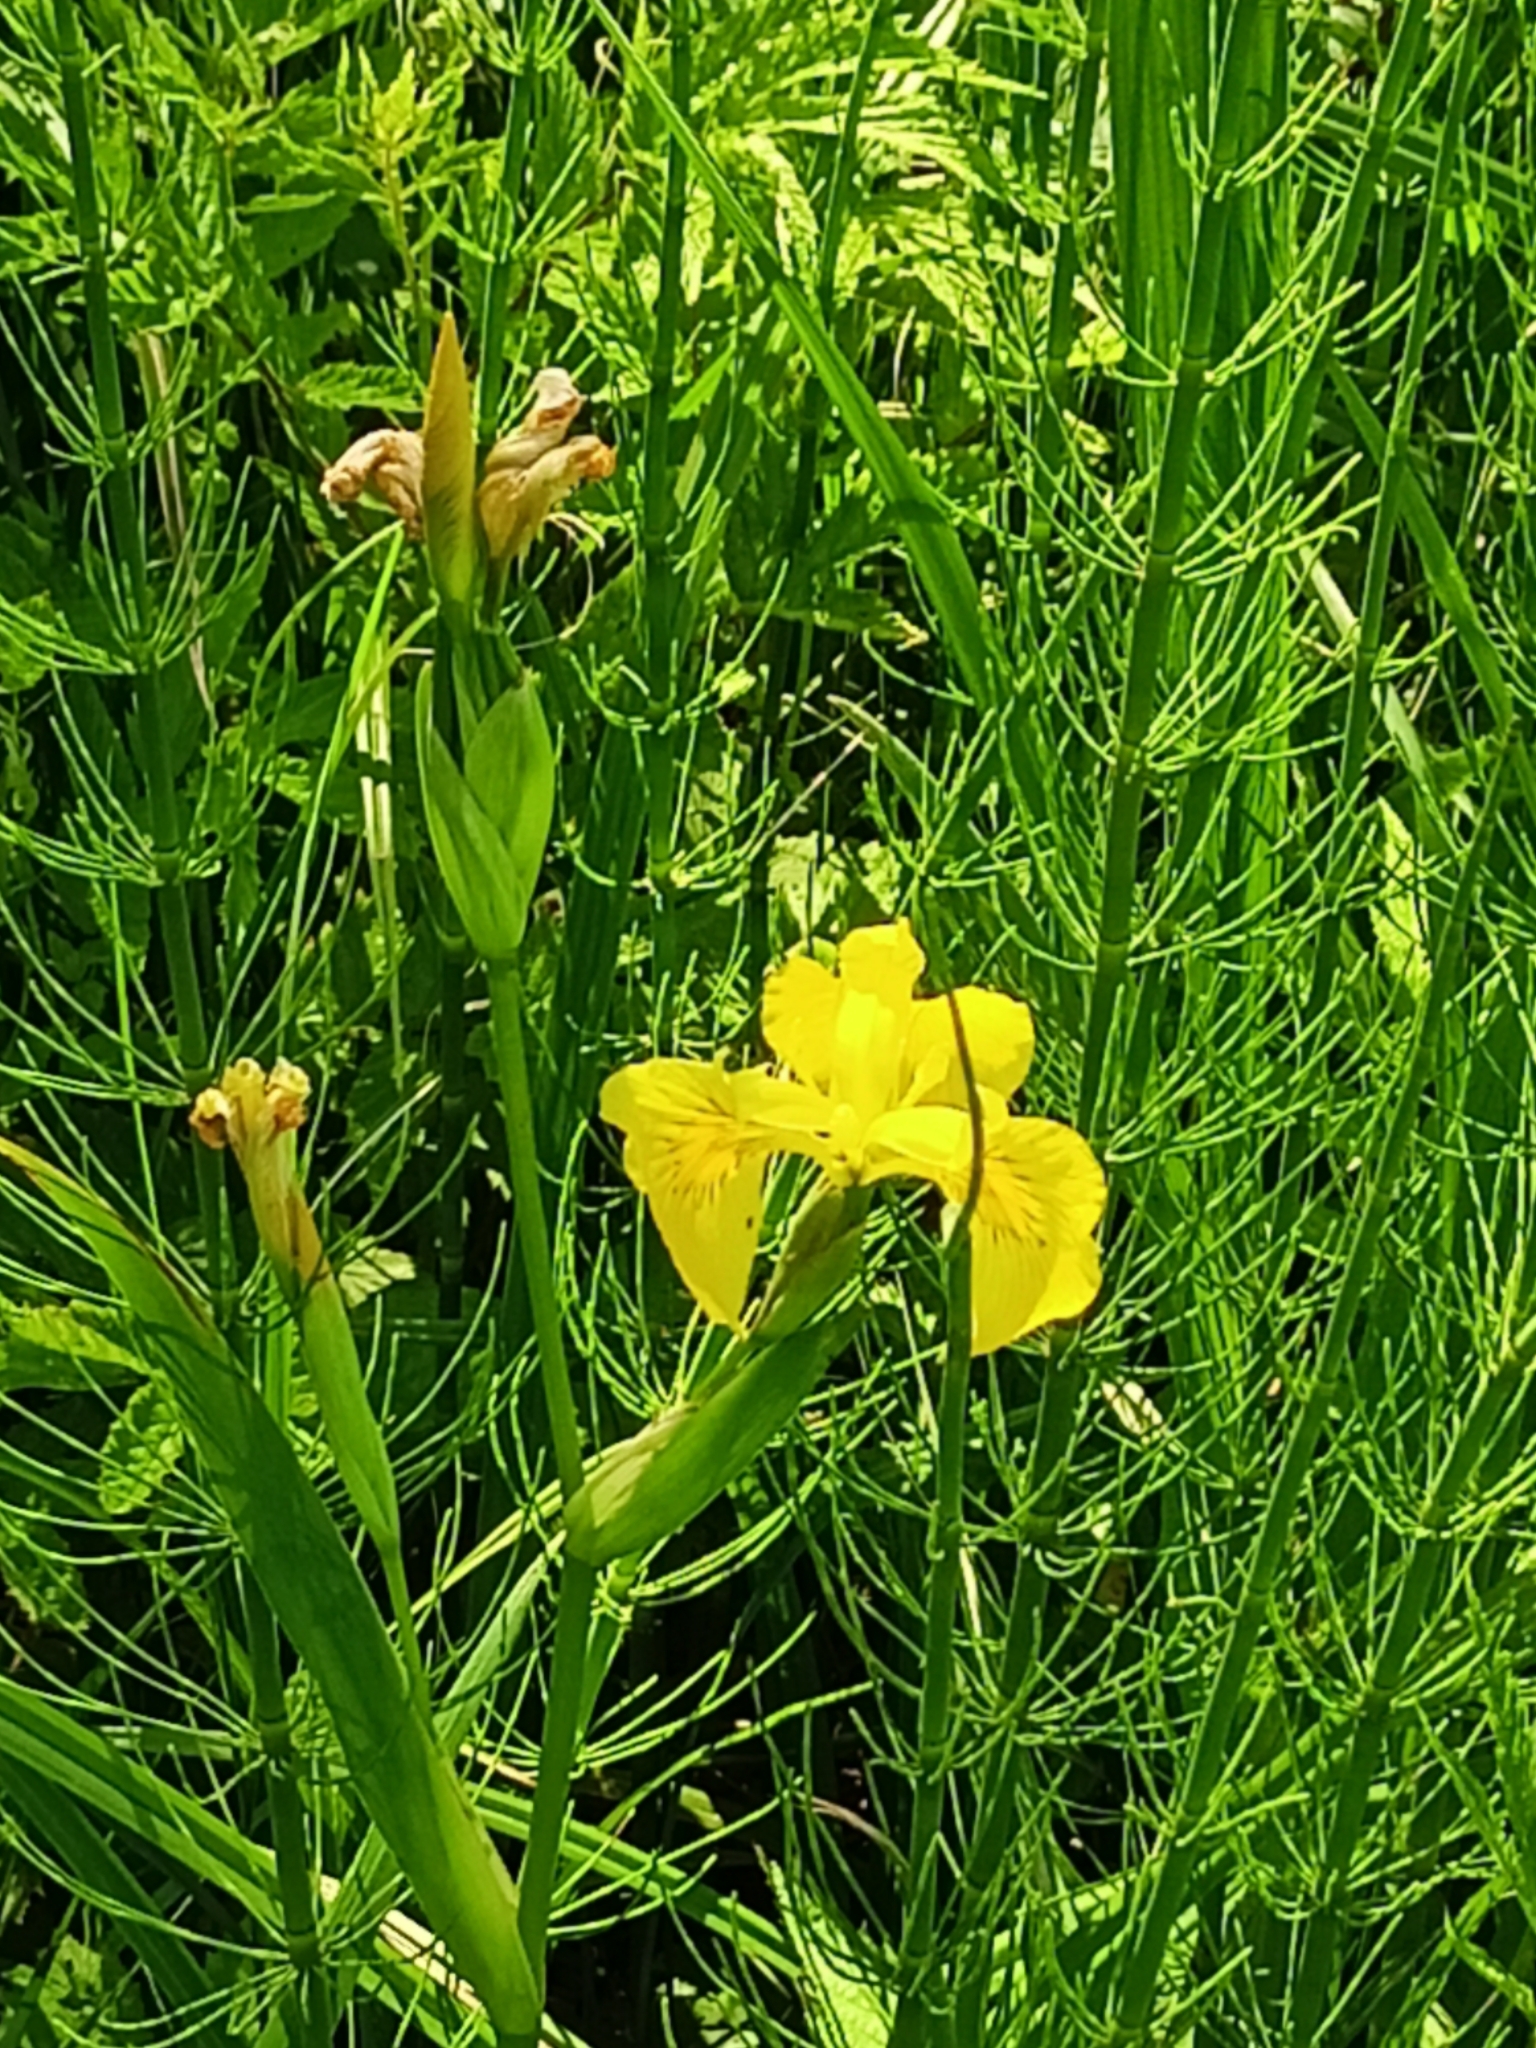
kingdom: Plantae
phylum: Tracheophyta
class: Liliopsida
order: Asparagales
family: Iridaceae
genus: Iris
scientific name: Iris pseudacorus
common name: Yellow flag
